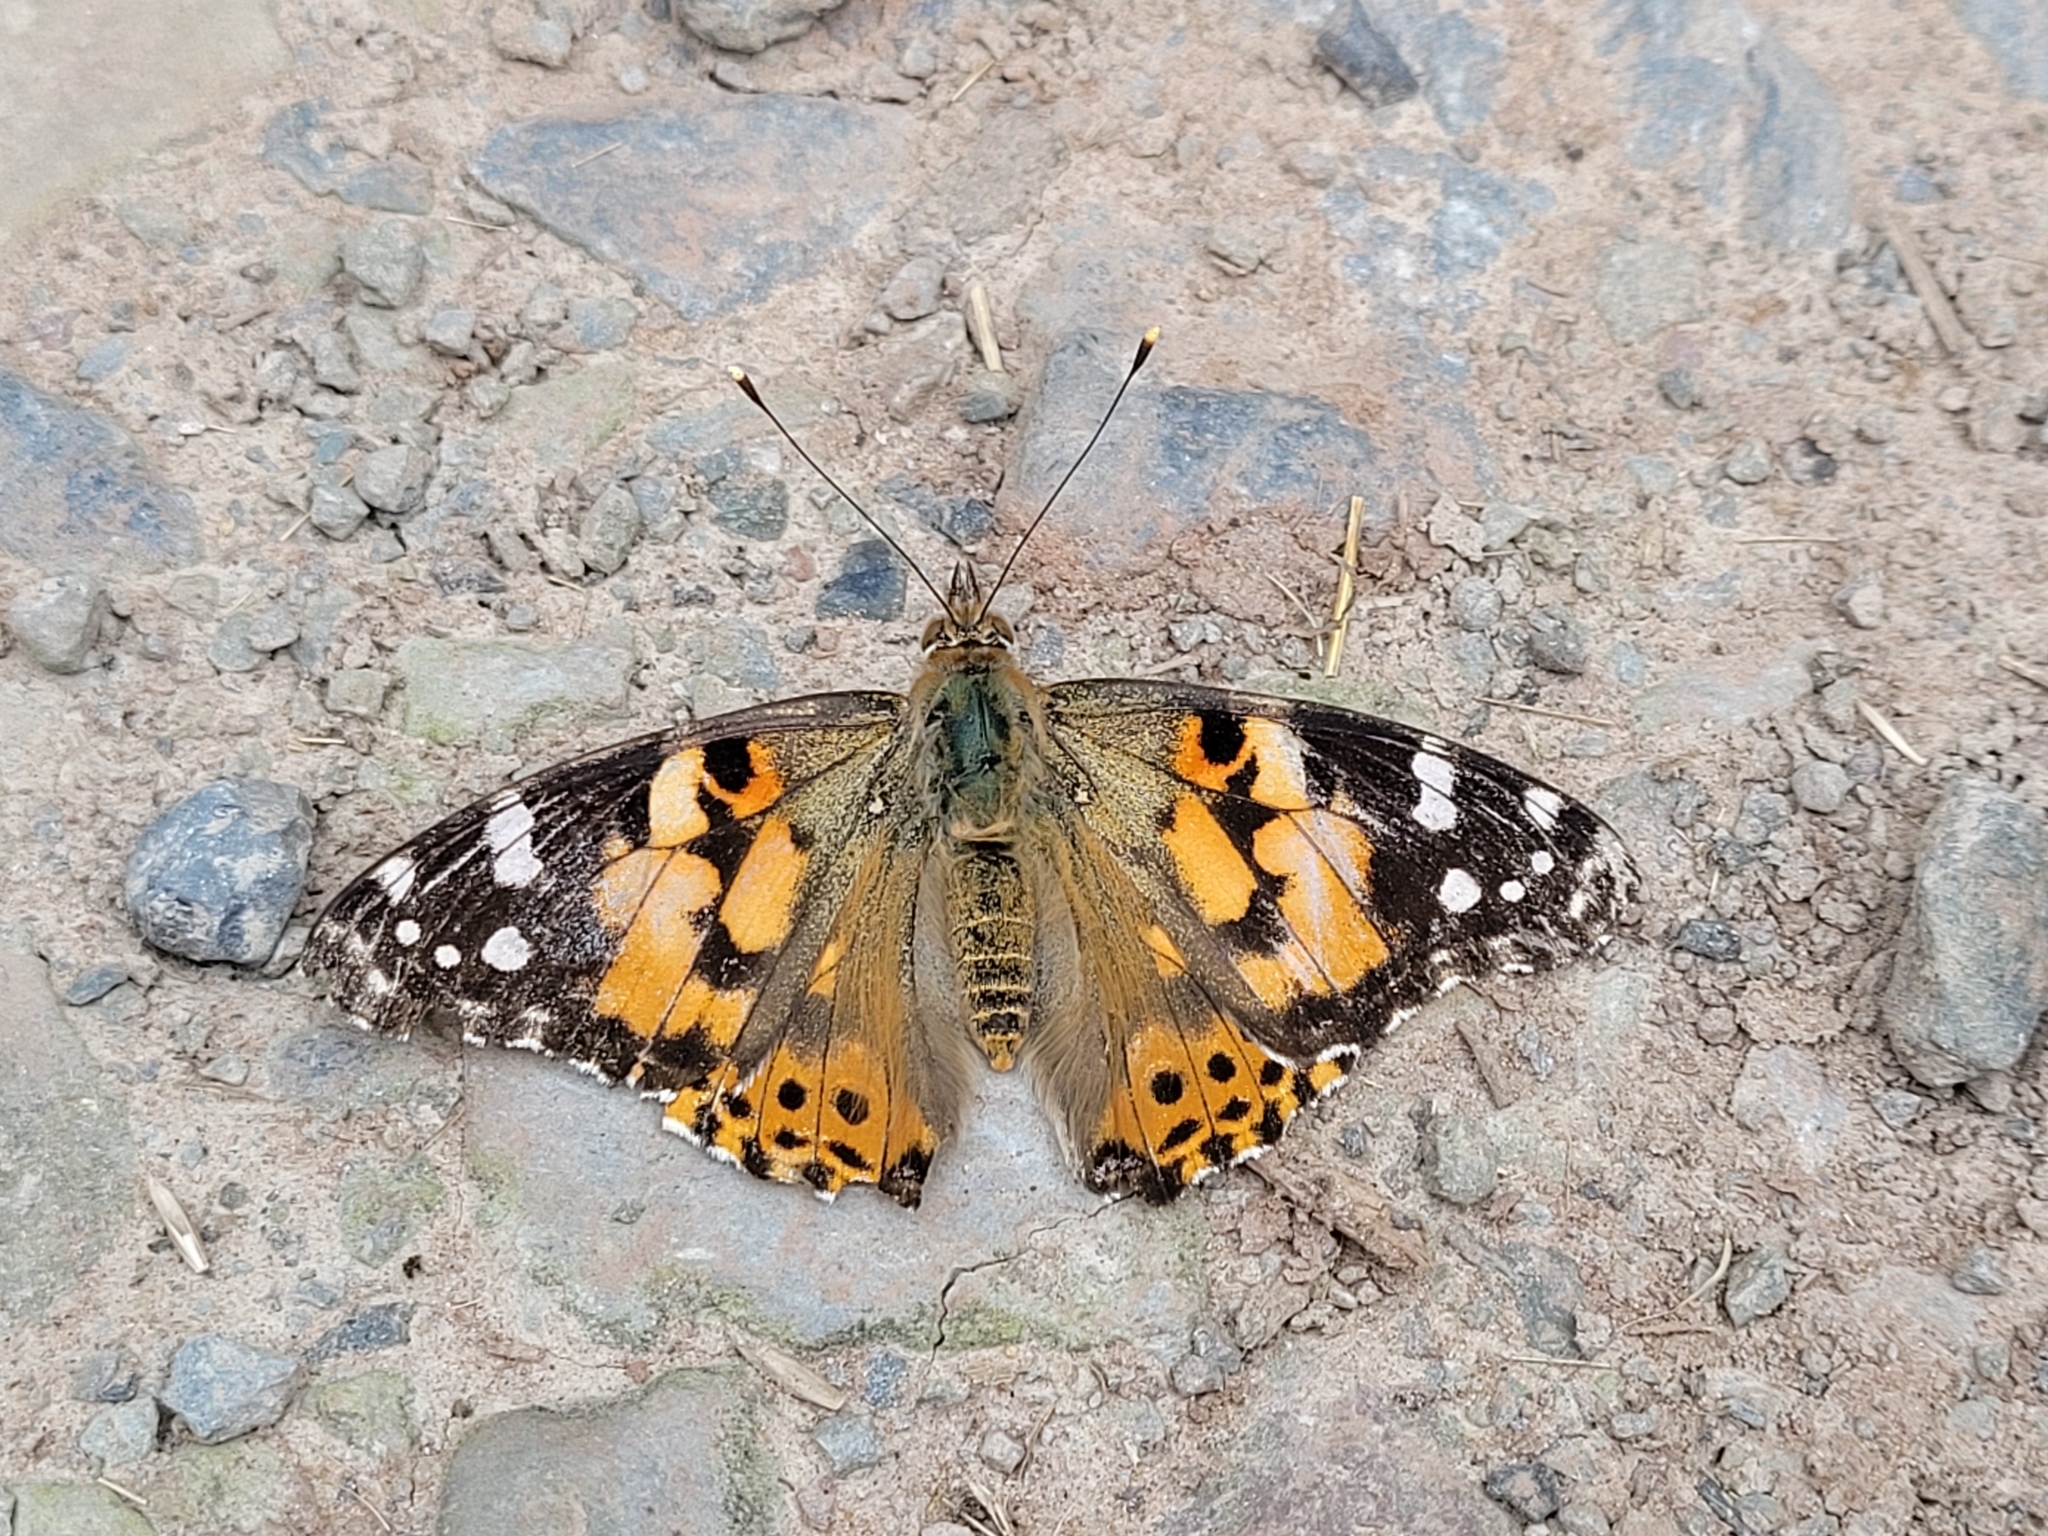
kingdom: Animalia
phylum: Arthropoda
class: Insecta
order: Lepidoptera
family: Nymphalidae
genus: Vanessa
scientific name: Vanessa cardui
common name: Painted lady
